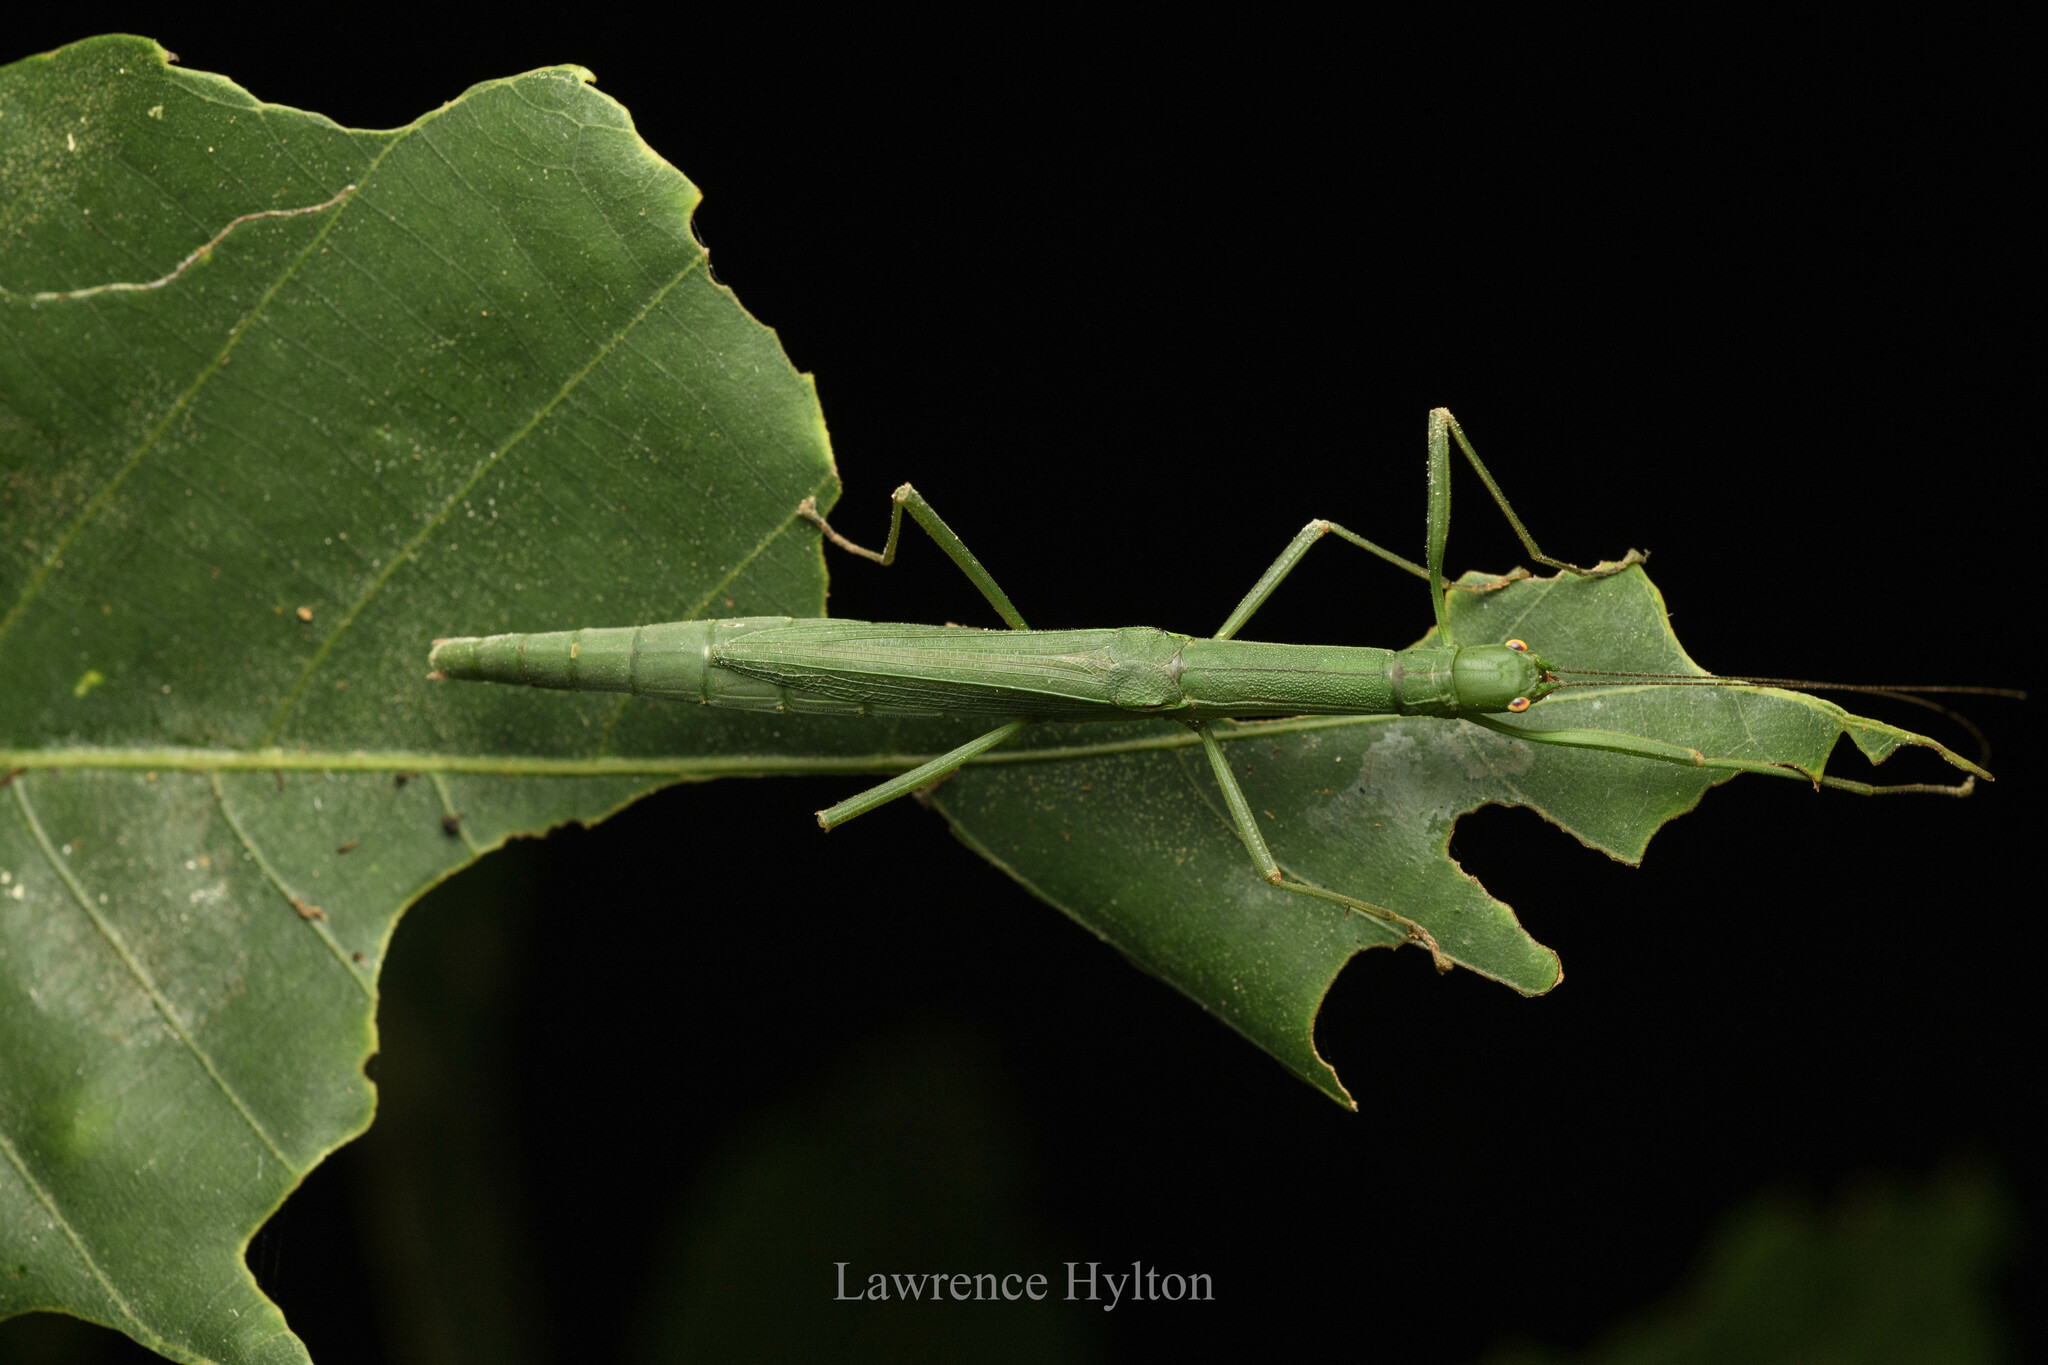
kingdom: Animalia
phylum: Arthropoda
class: Insecta
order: Phasmida
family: Lonchodidae
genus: Micadina
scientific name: Micadina yingdensis
